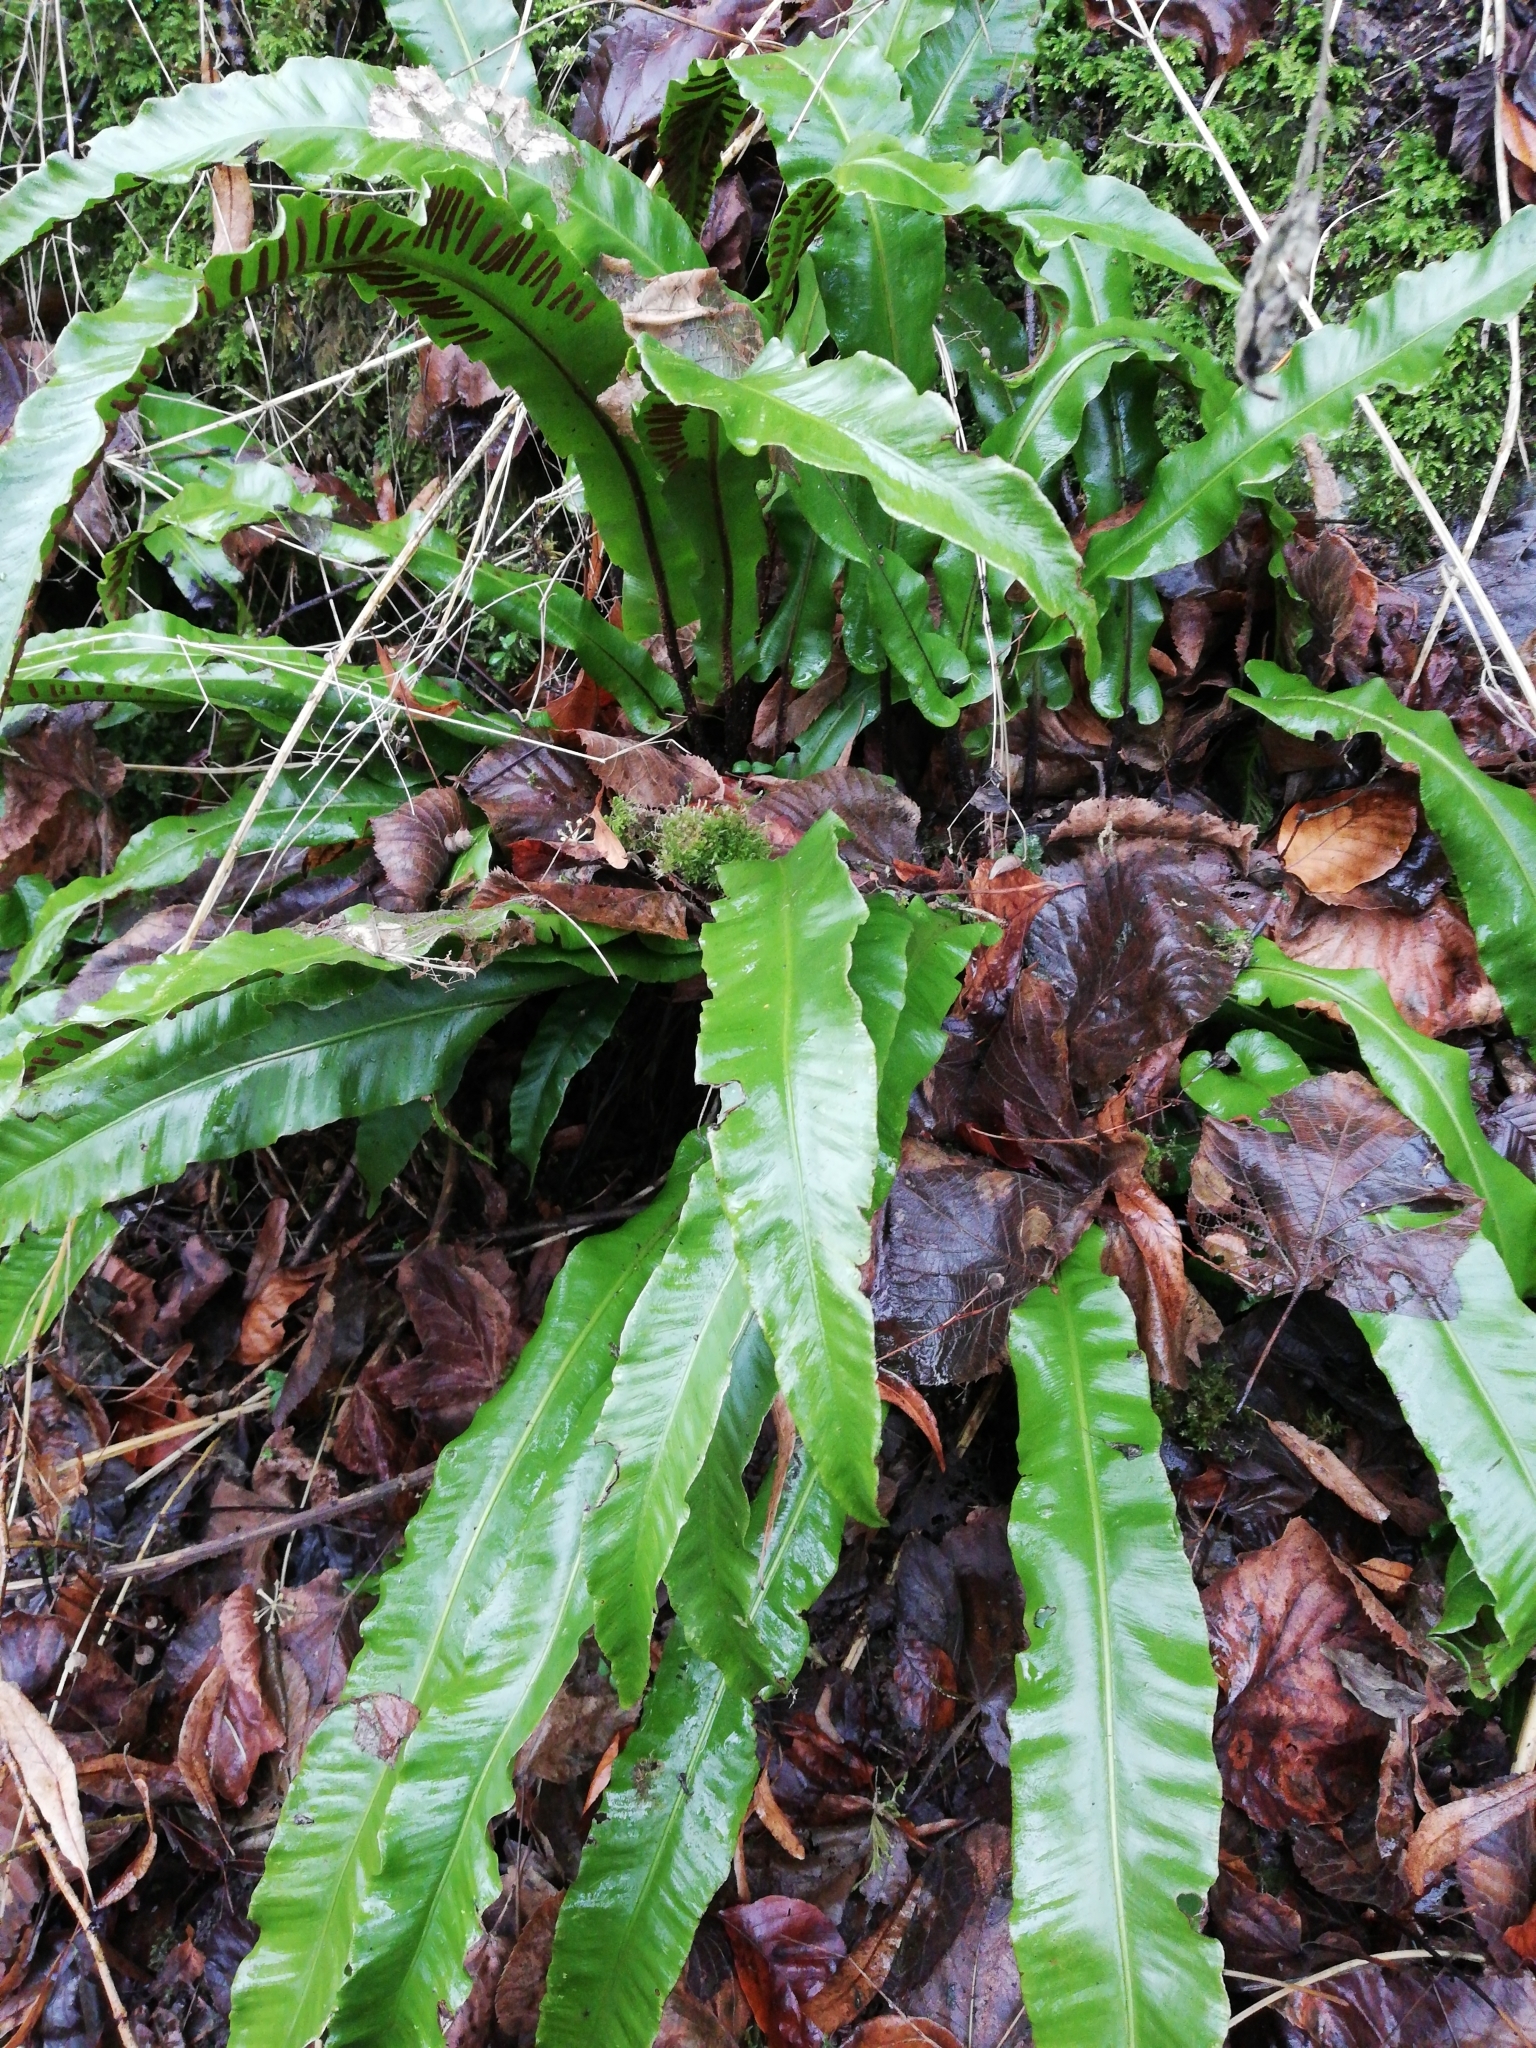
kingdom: Plantae
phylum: Tracheophyta
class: Polypodiopsida
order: Polypodiales
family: Aspleniaceae
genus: Asplenium
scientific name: Asplenium scolopendrium
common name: Hart's-tongue fern
